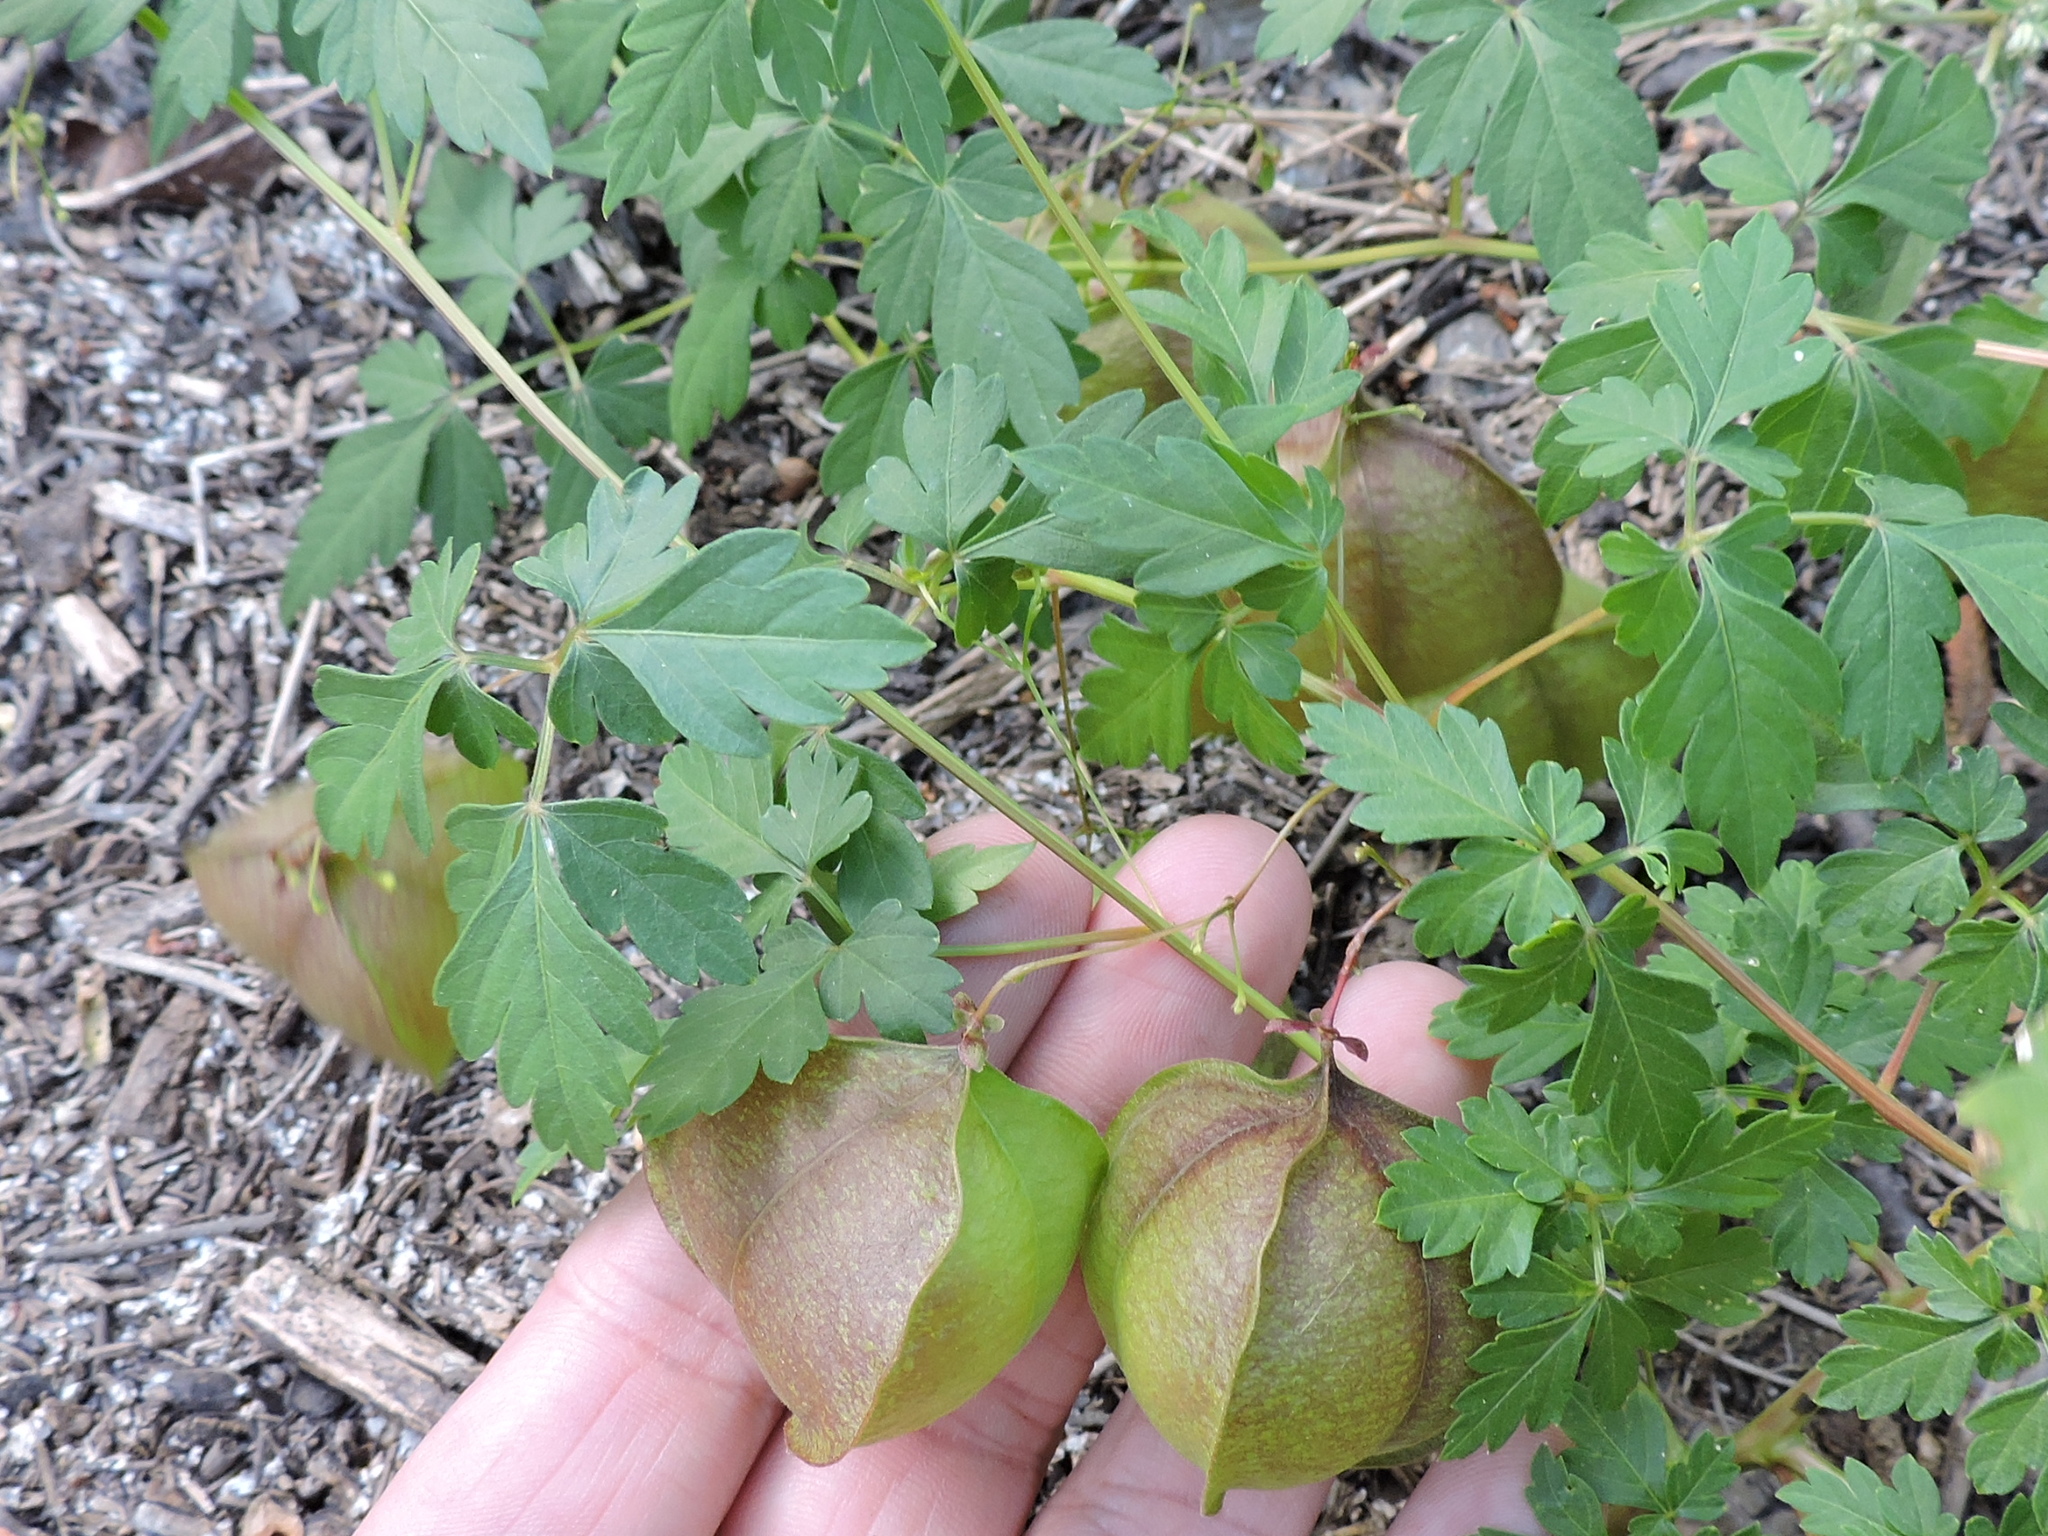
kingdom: Plantae
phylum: Tracheophyta
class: Magnoliopsida
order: Sapindales
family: Sapindaceae
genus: Cardiospermum
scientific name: Cardiospermum halicacabum
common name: Balloon vine
